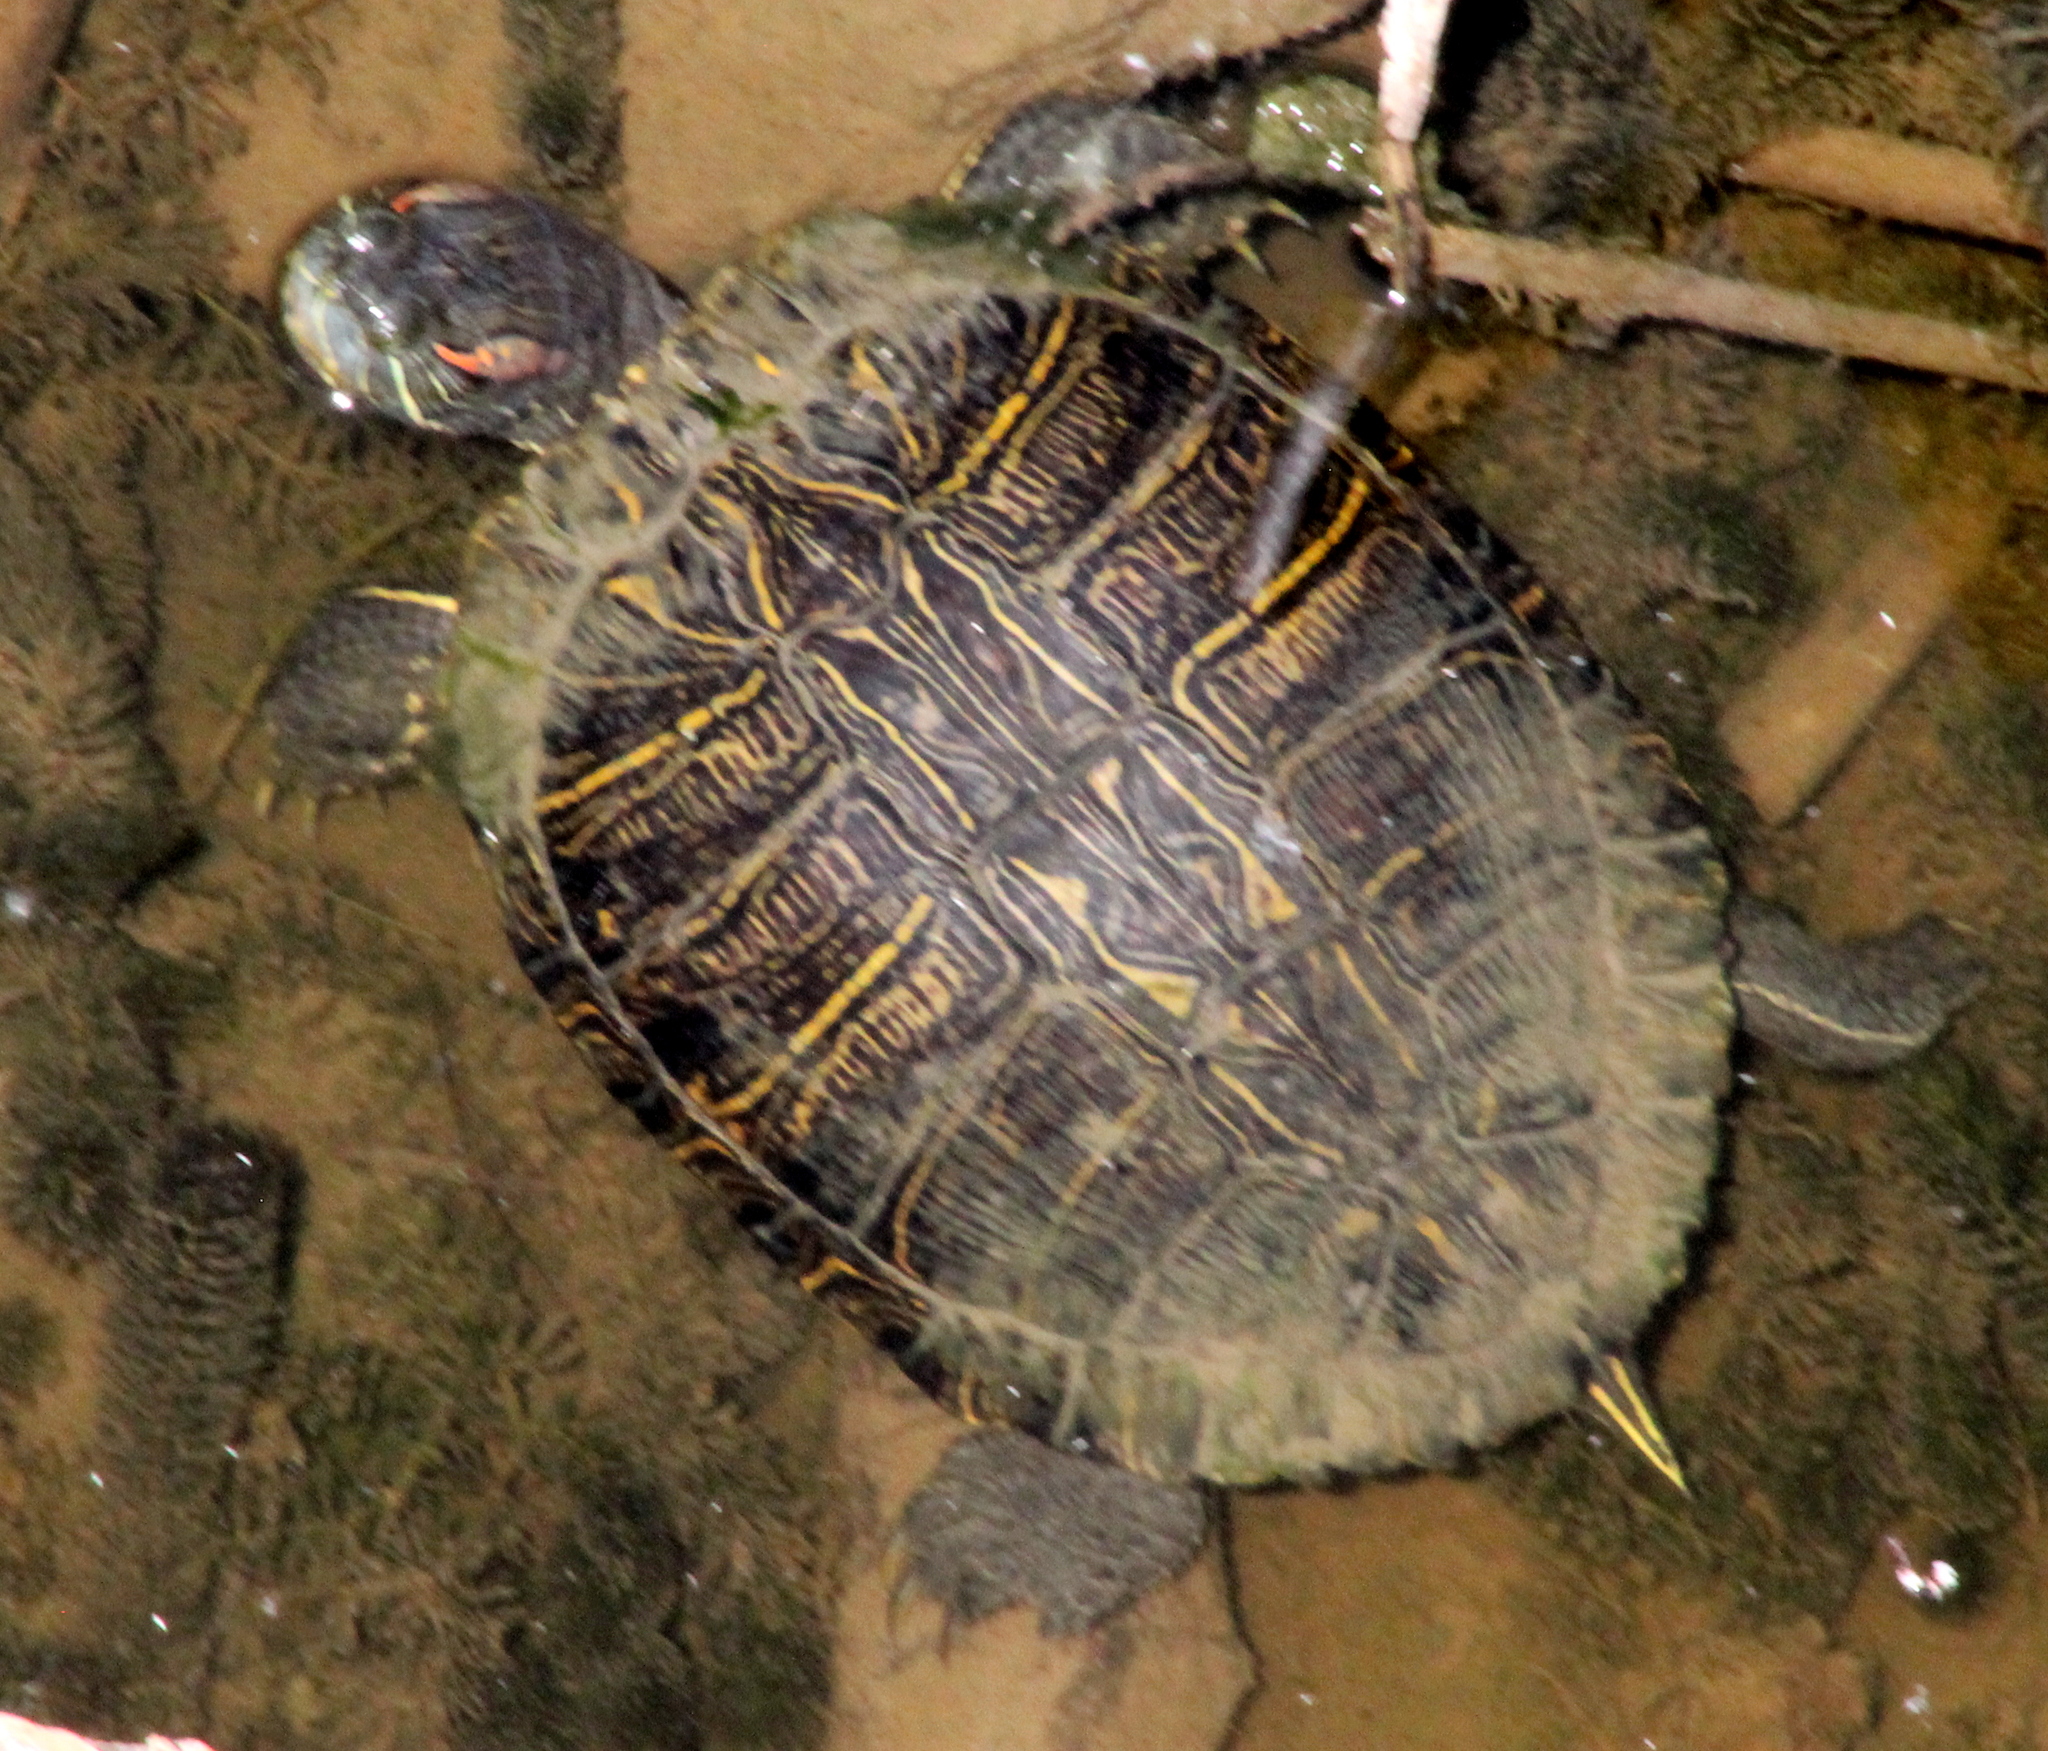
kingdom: Animalia
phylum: Chordata
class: Testudines
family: Emydidae
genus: Trachemys
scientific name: Trachemys scripta
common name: Slider
